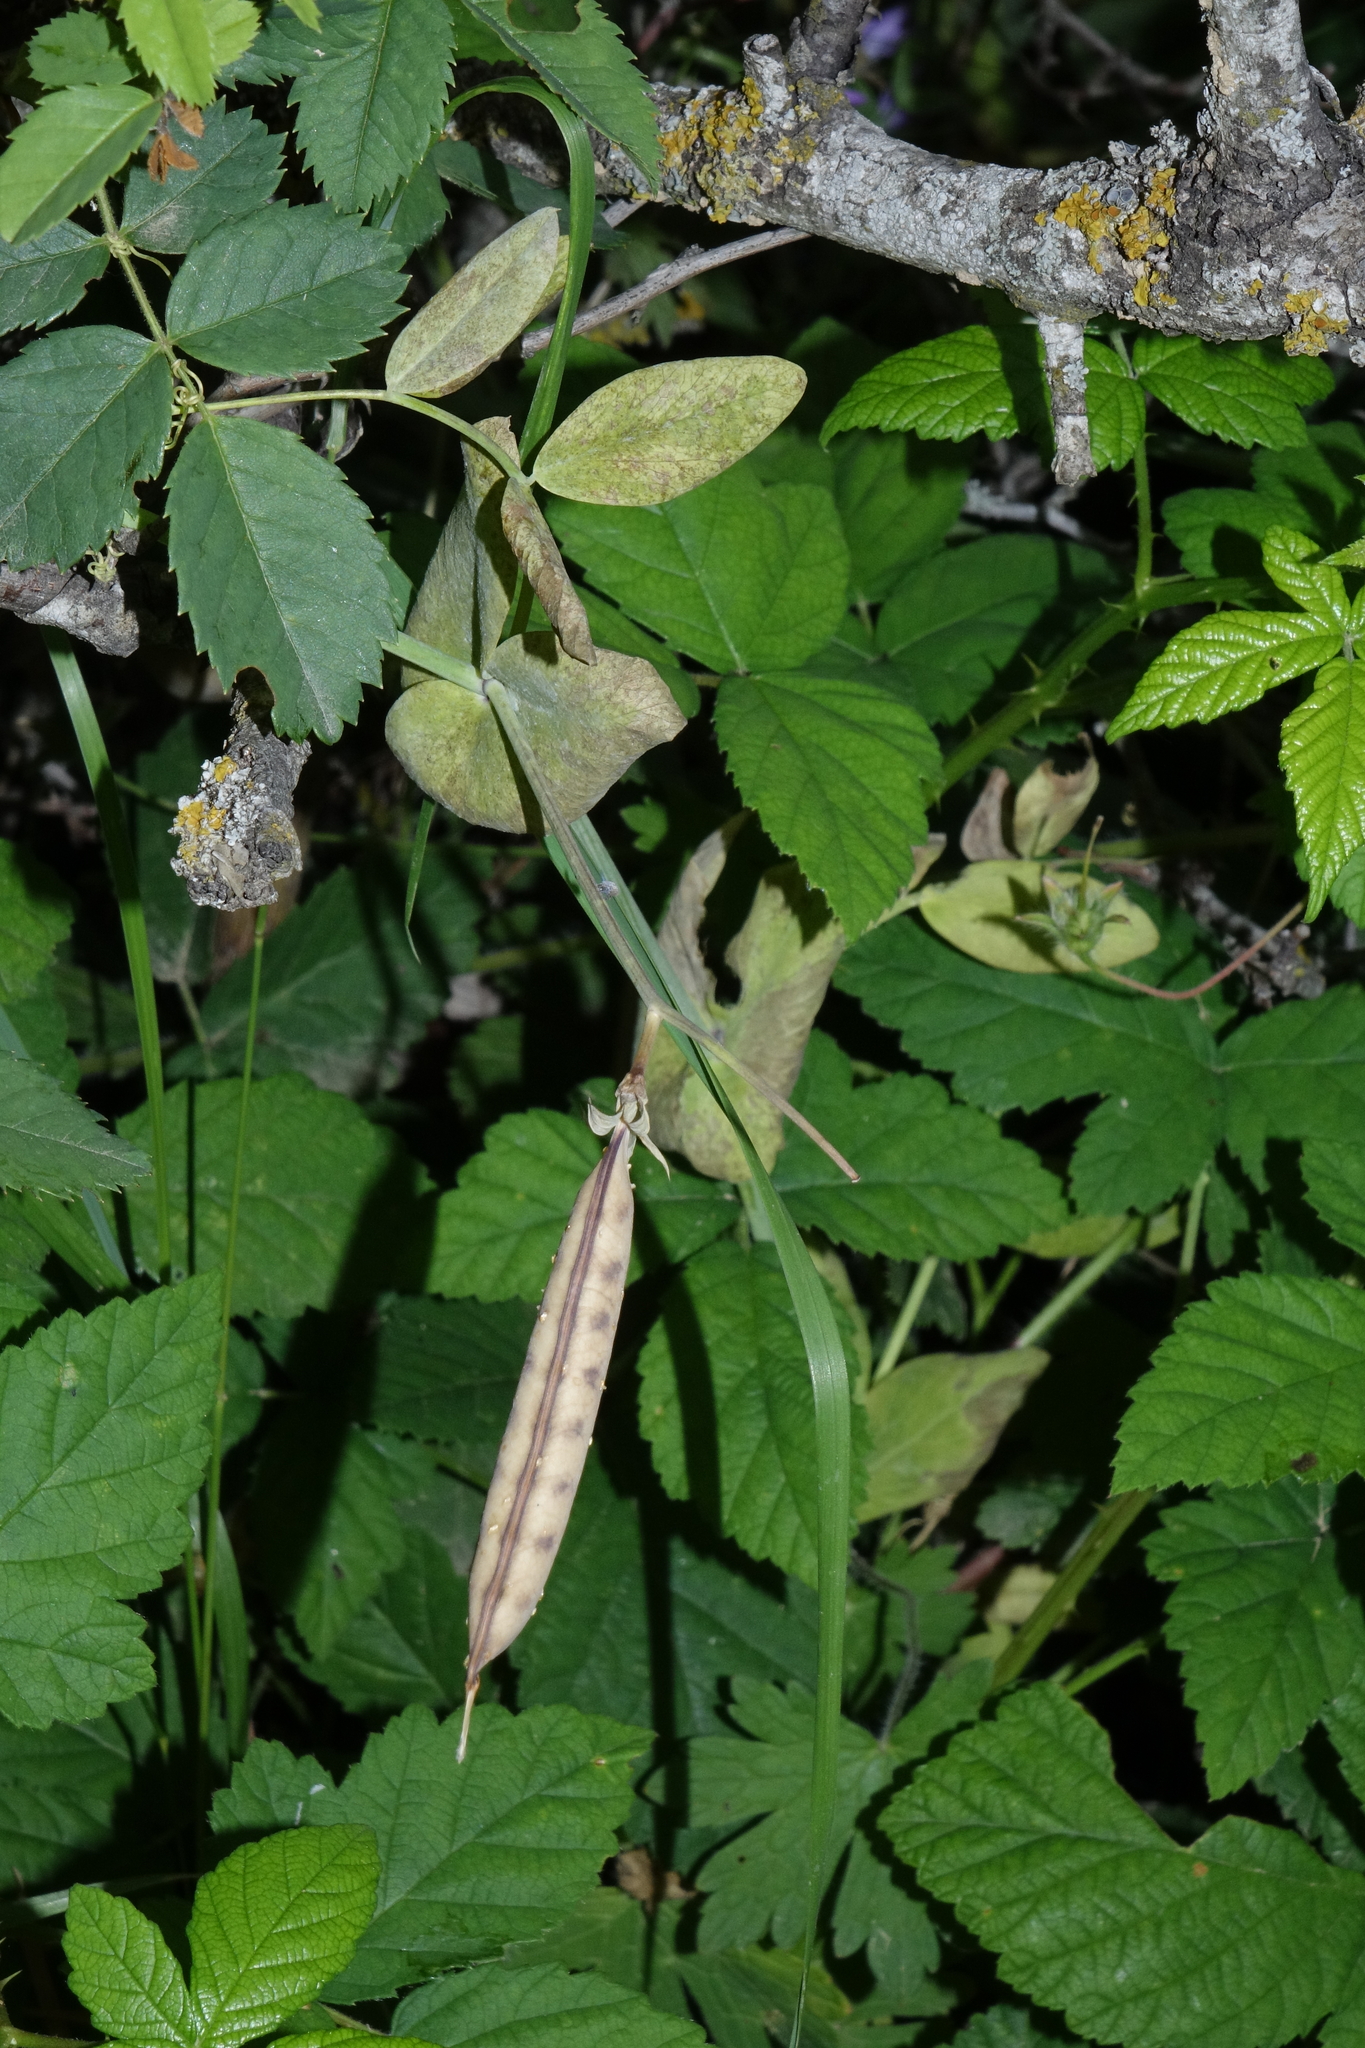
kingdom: Plantae
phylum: Tracheophyta
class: Magnoliopsida
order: Fabales
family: Fabaceae
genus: Lathyrus
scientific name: Lathyrus oleraceus
